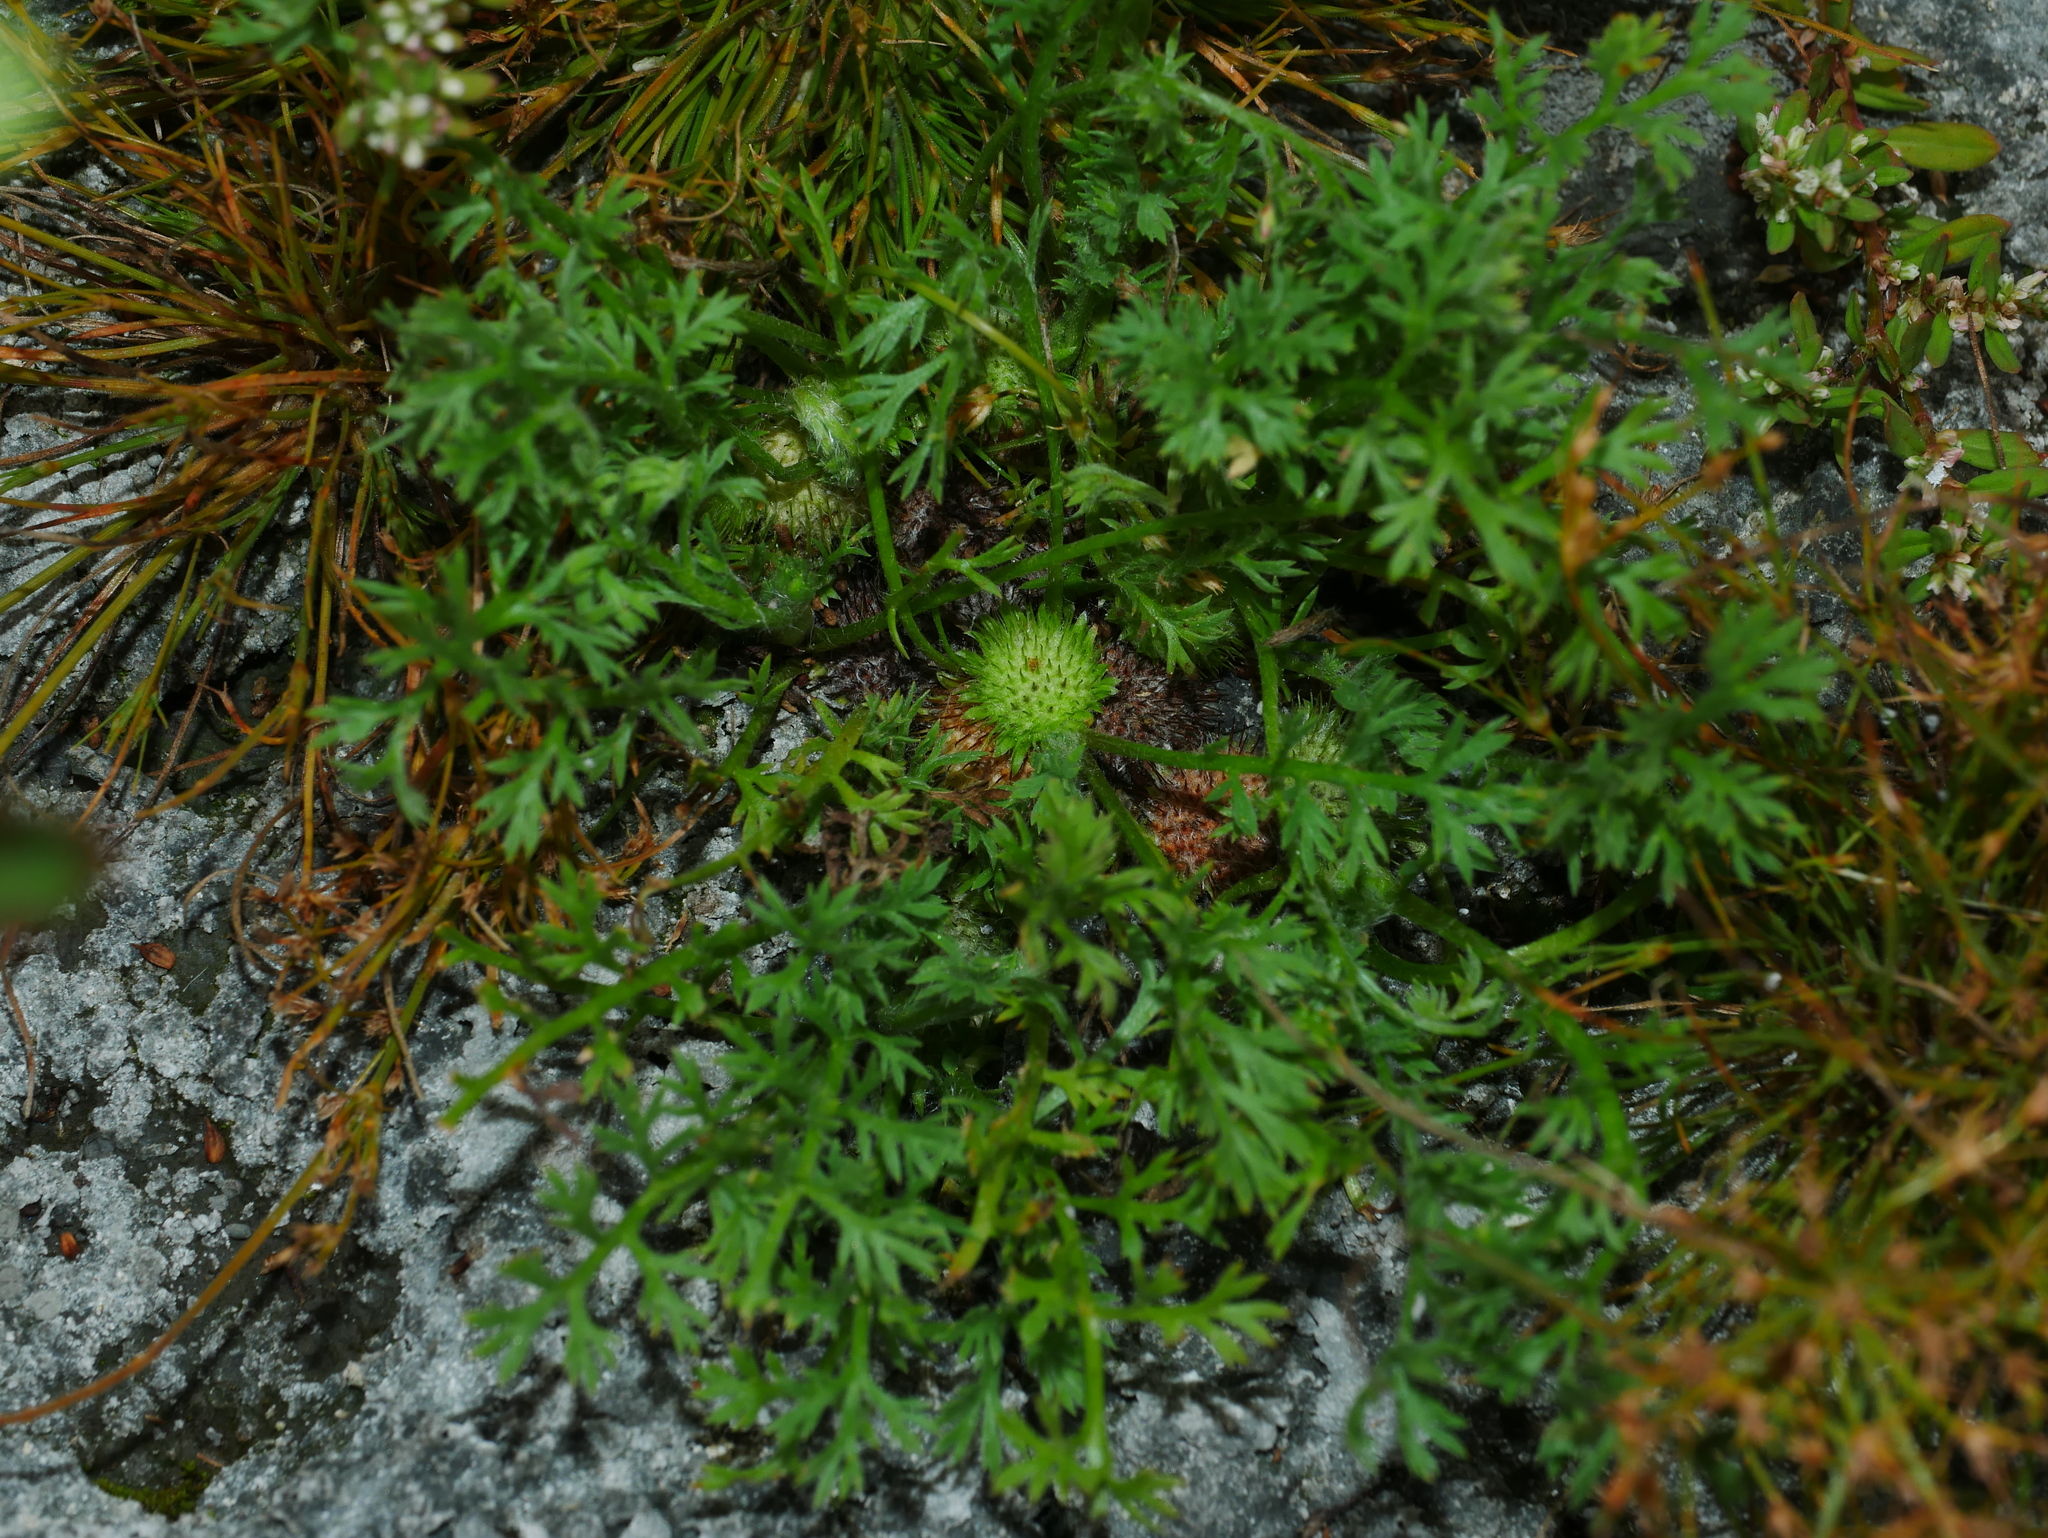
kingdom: Plantae
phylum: Tracheophyta
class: Magnoliopsida
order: Asterales
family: Asteraceae
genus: Soliva
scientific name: Soliva anthemifolia
